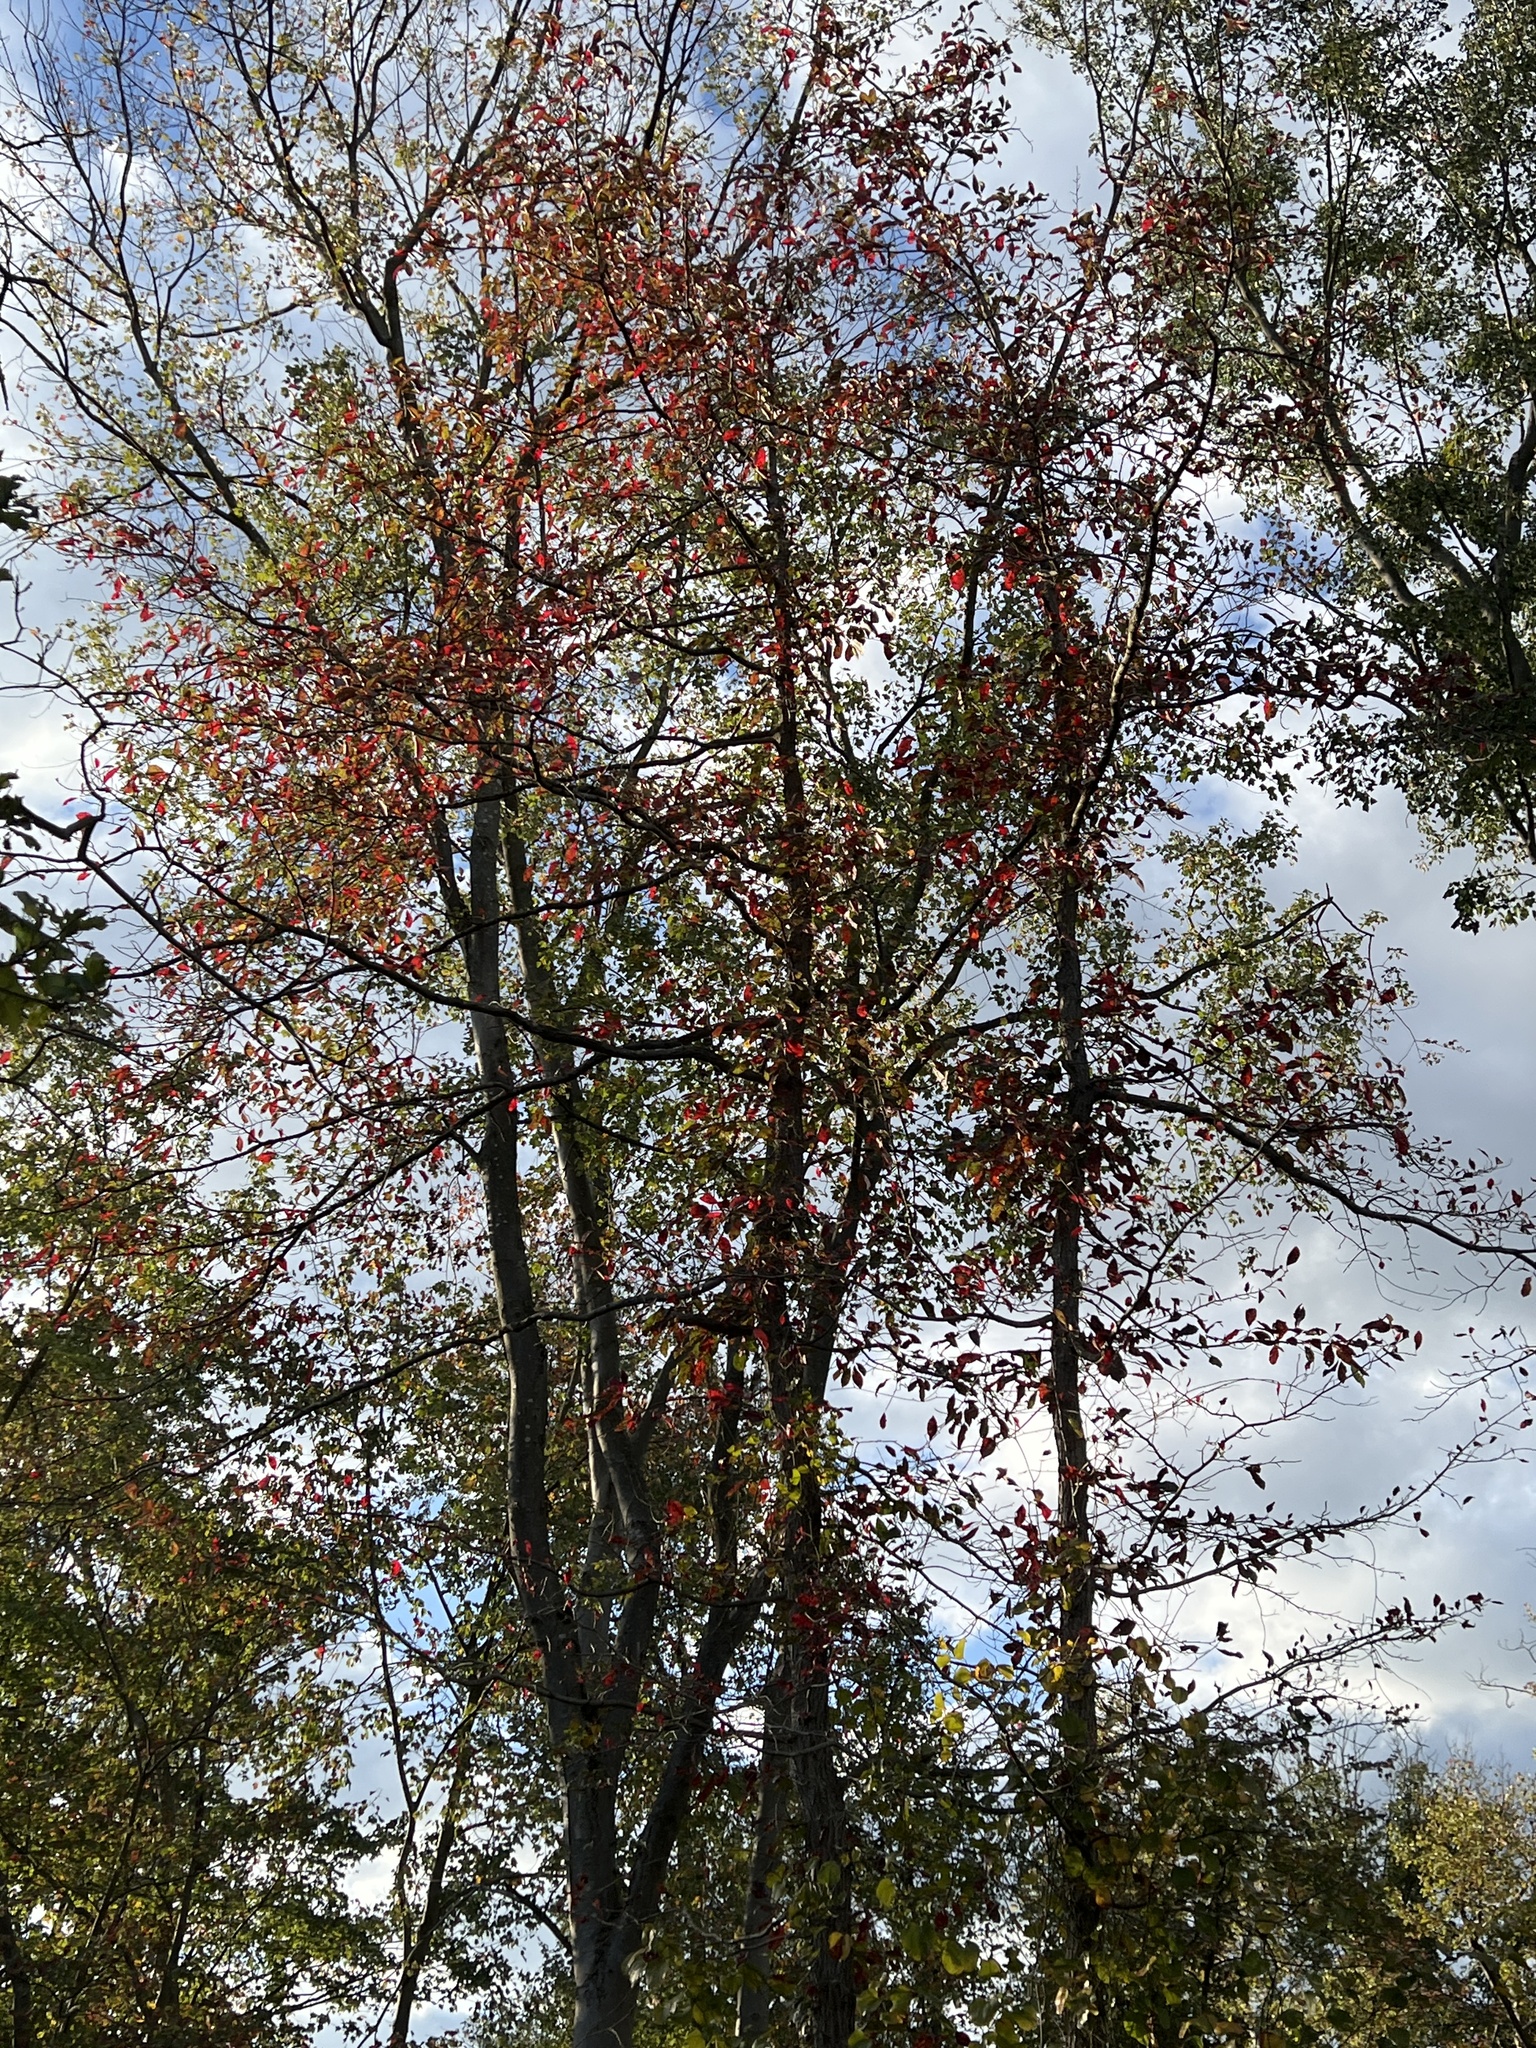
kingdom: Plantae
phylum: Tracheophyta
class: Magnoliopsida
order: Cornales
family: Nyssaceae
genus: Nyssa
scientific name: Nyssa sylvatica
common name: Black tupelo
